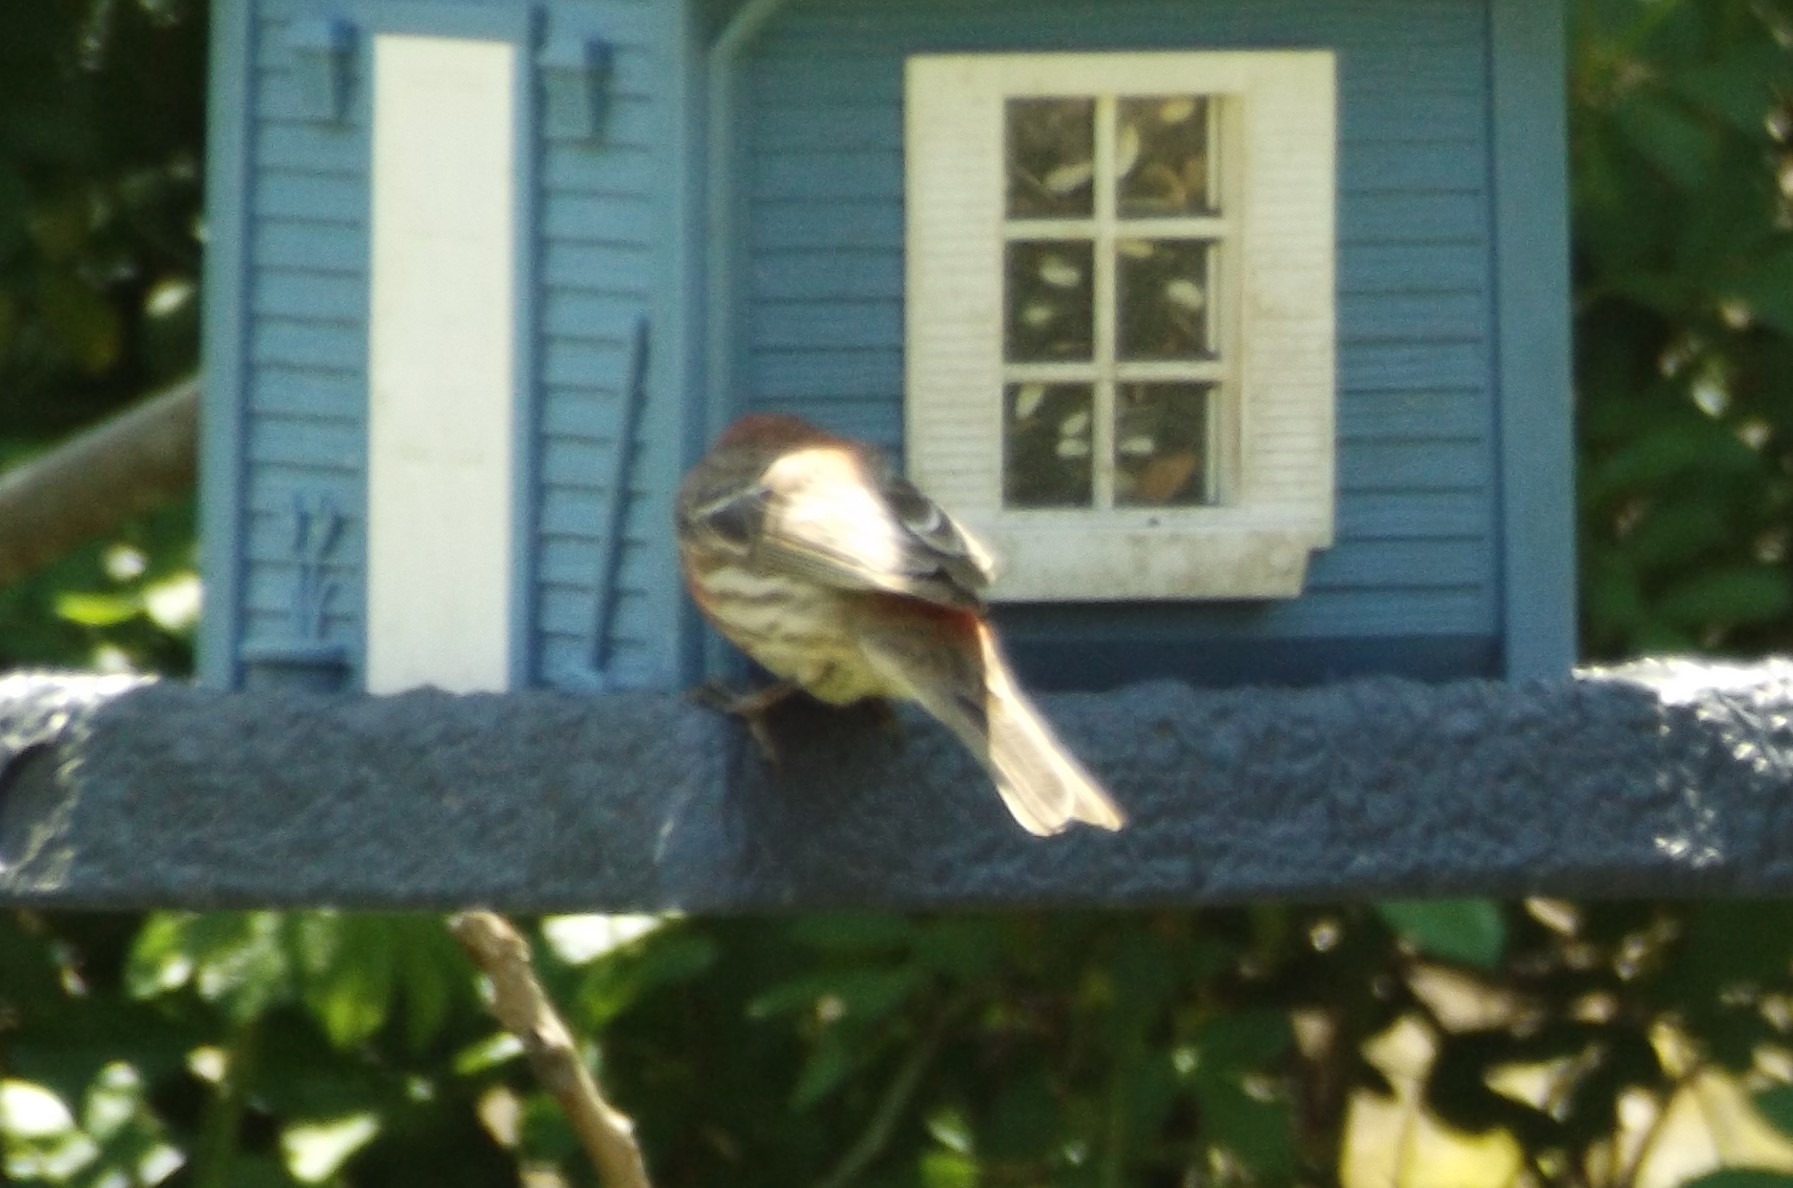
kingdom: Animalia
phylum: Chordata
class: Aves
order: Passeriformes
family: Fringillidae
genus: Haemorhous
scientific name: Haemorhous mexicanus
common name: House finch
